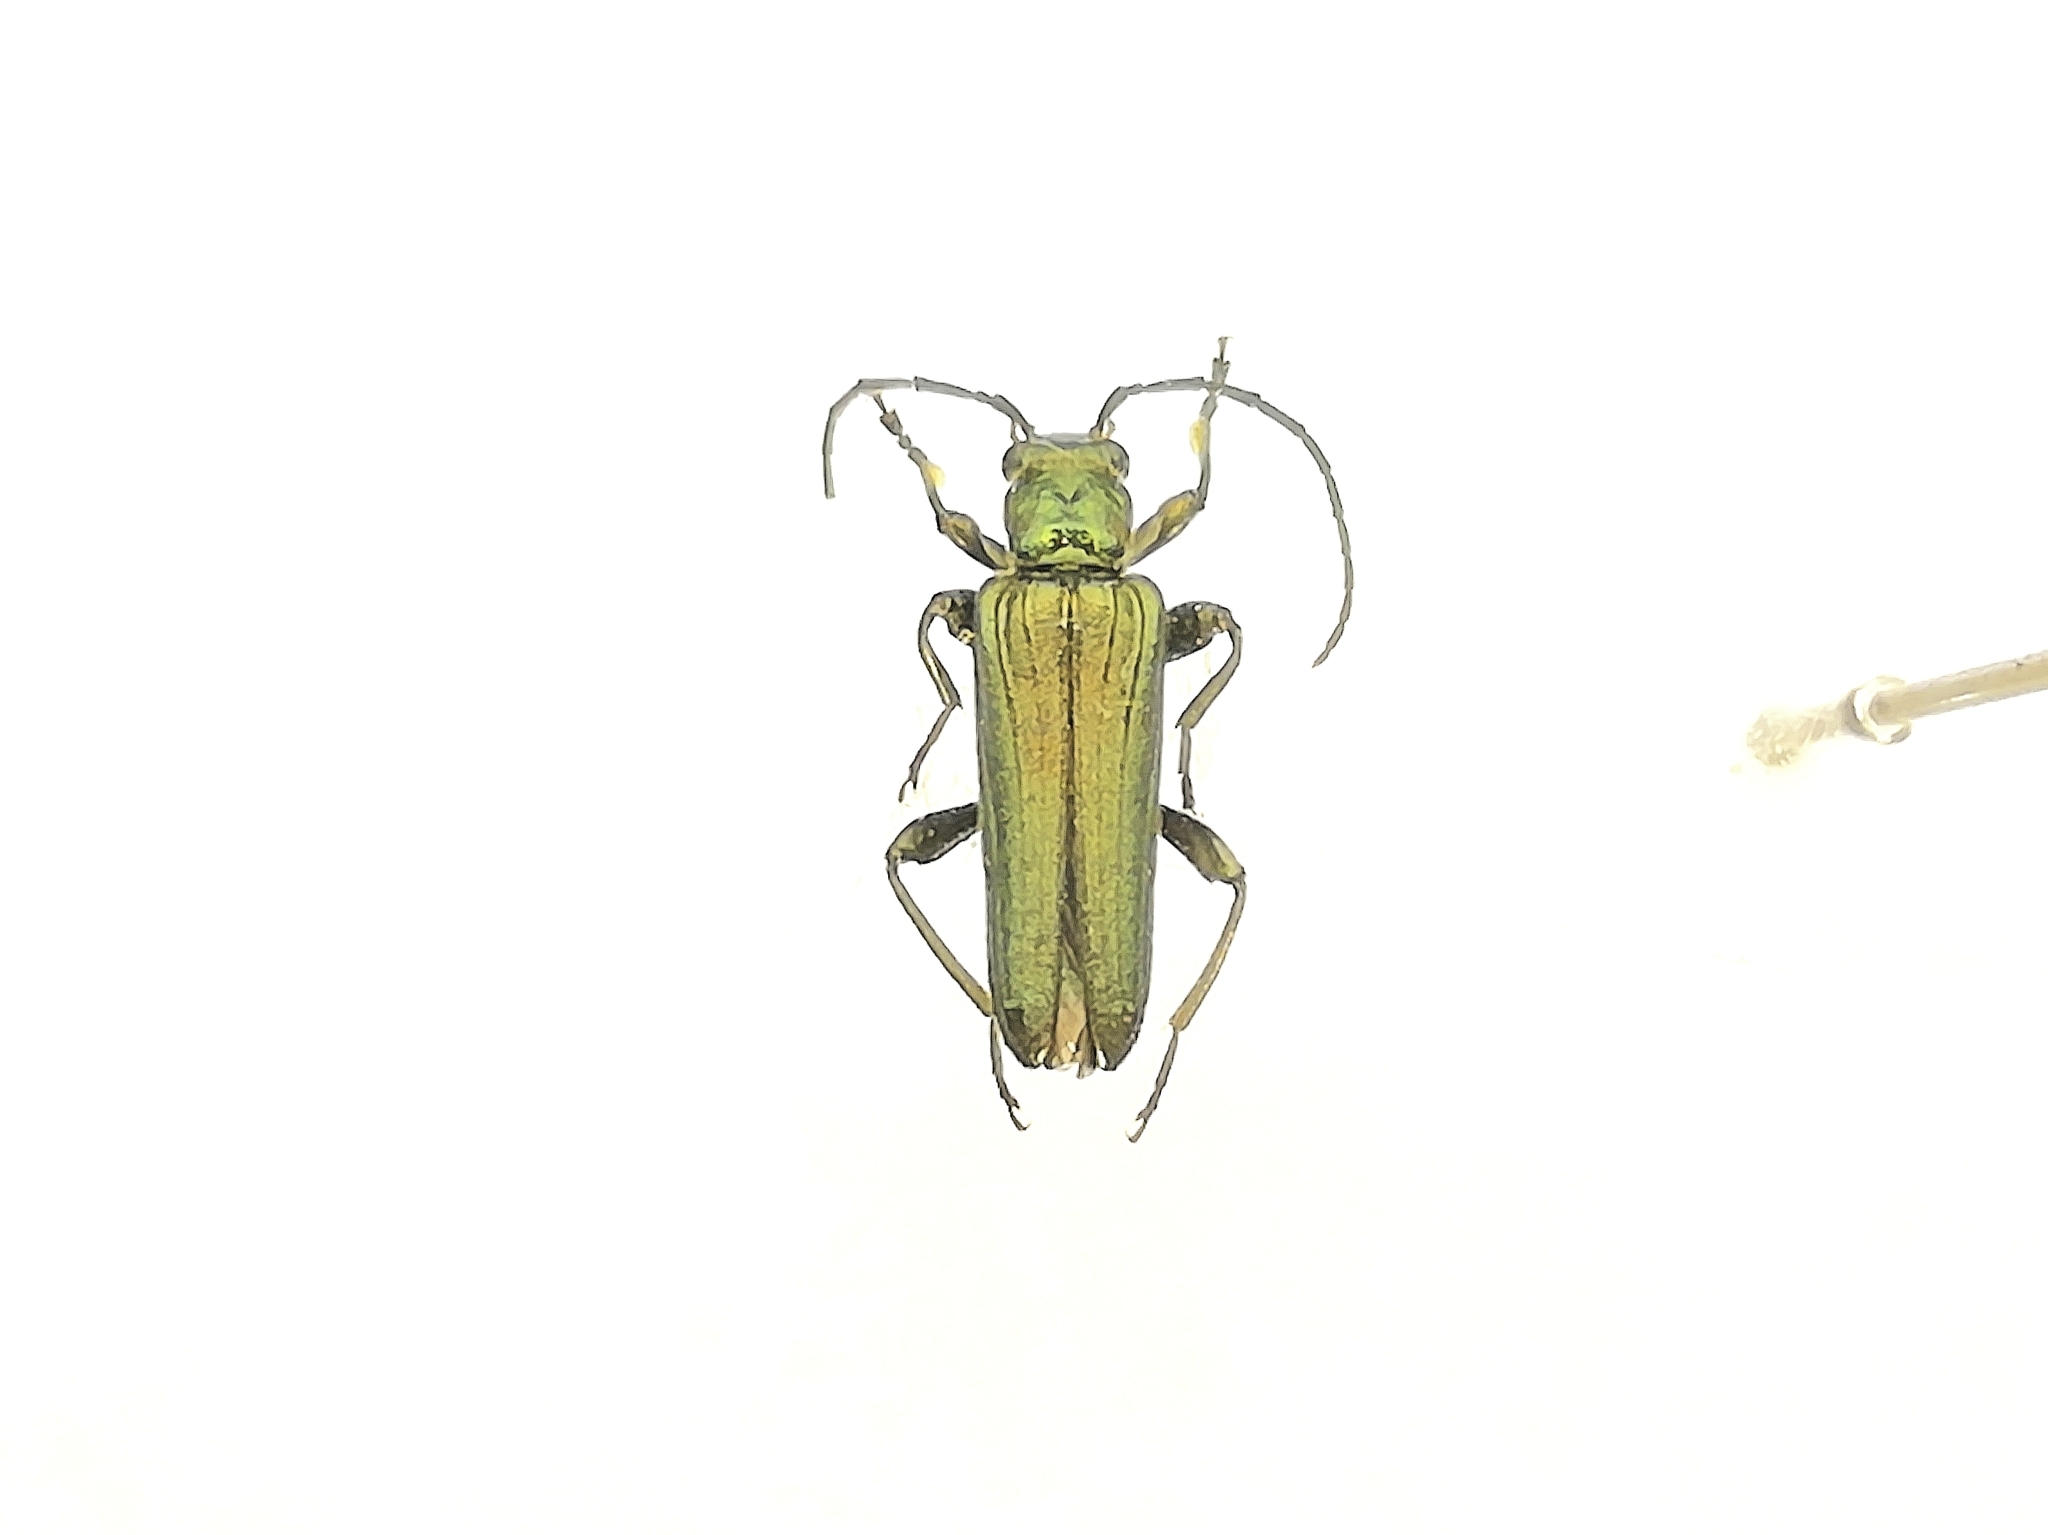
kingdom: Animalia
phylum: Arthropoda
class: Insecta
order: Coleoptera
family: Oedemeridae
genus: Anogcodes
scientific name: Anogcodes seladonius
